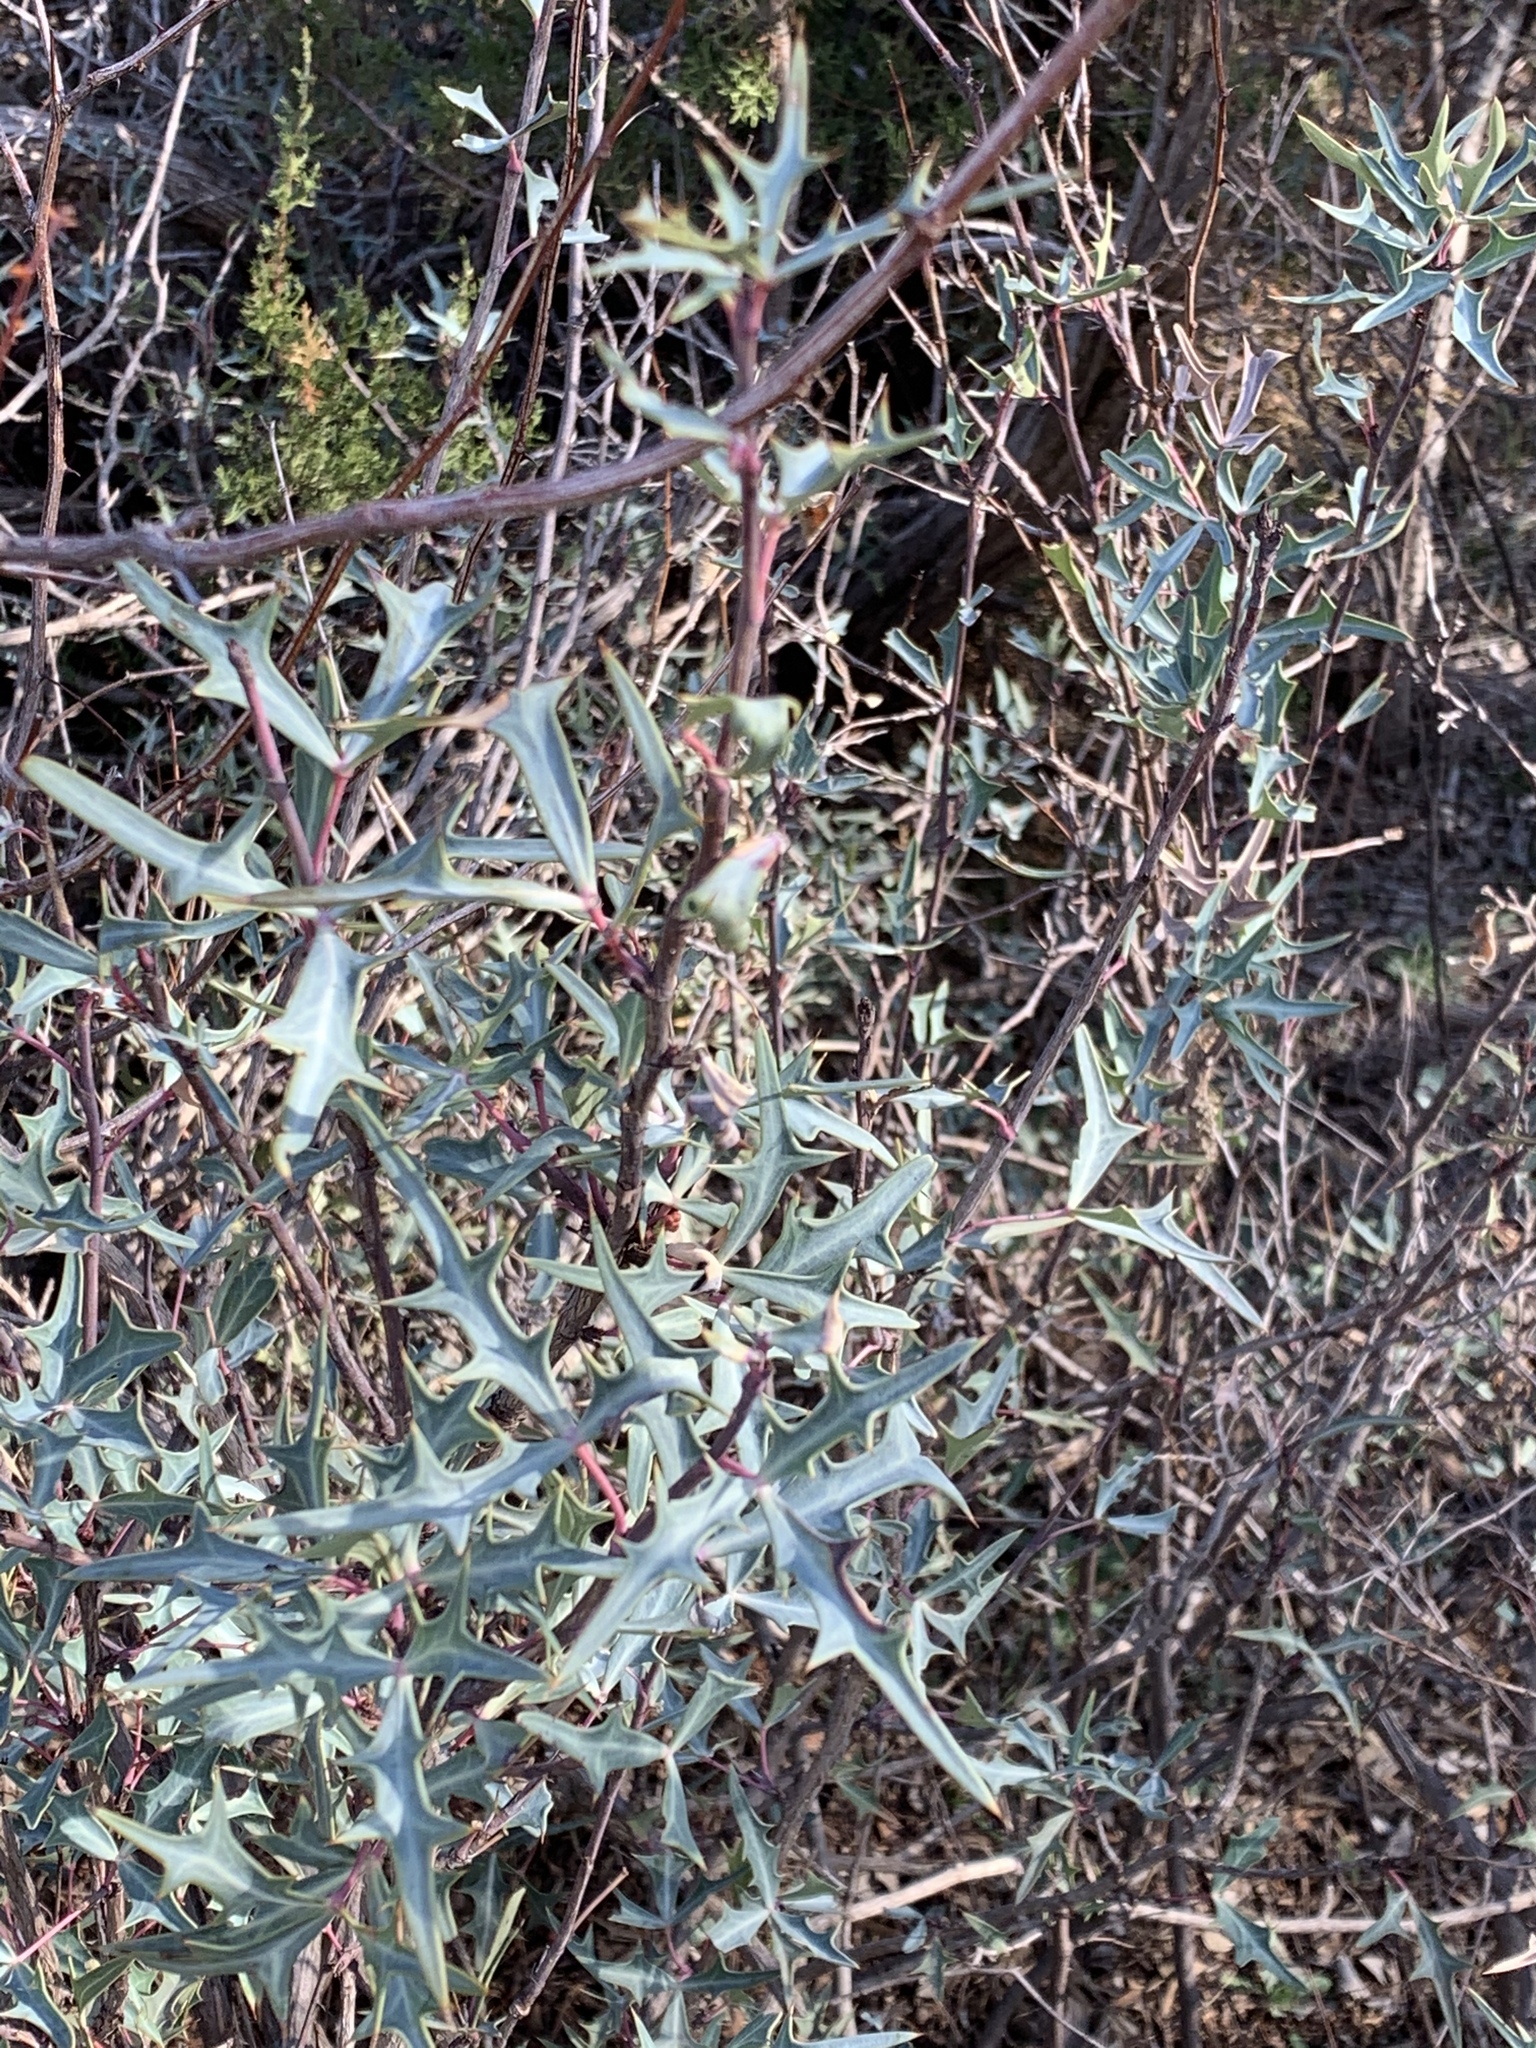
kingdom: Plantae
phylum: Tracheophyta
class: Magnoliopsida
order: Ranunculales
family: Berberidaceae
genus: Alloberberis
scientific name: Alloberberis trifoliolata
